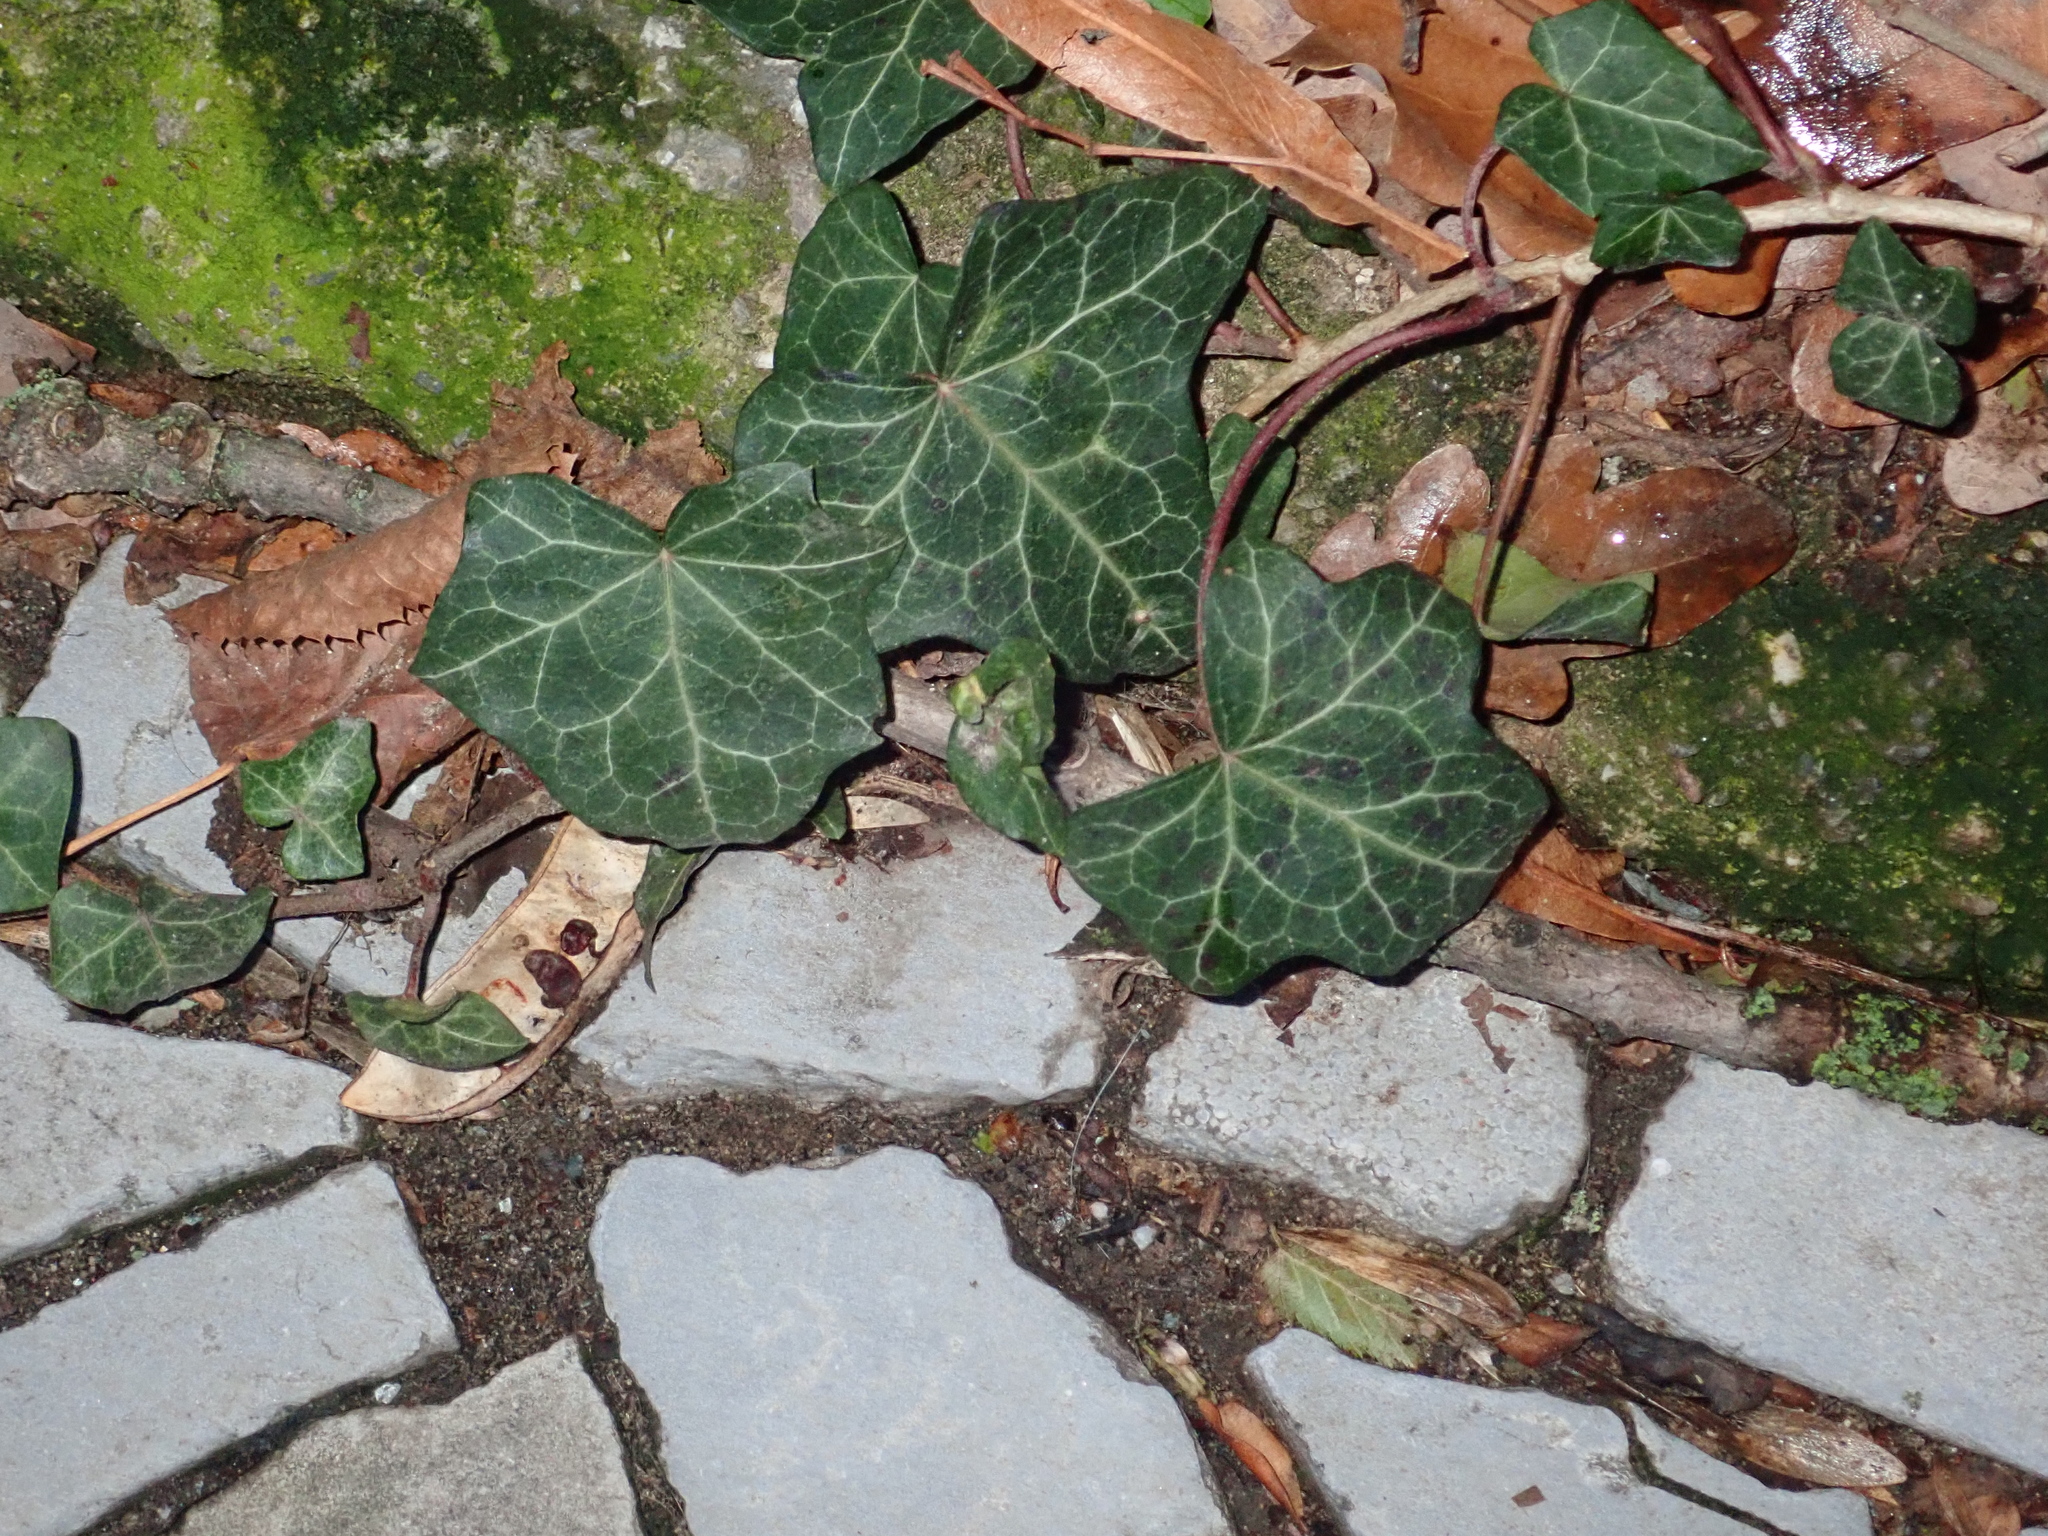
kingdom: Plantae
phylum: Tracheophyta
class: Magnoliopsida
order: Apiales
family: Araliaceae
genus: Hedera
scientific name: Hedera helix
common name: Ivy
